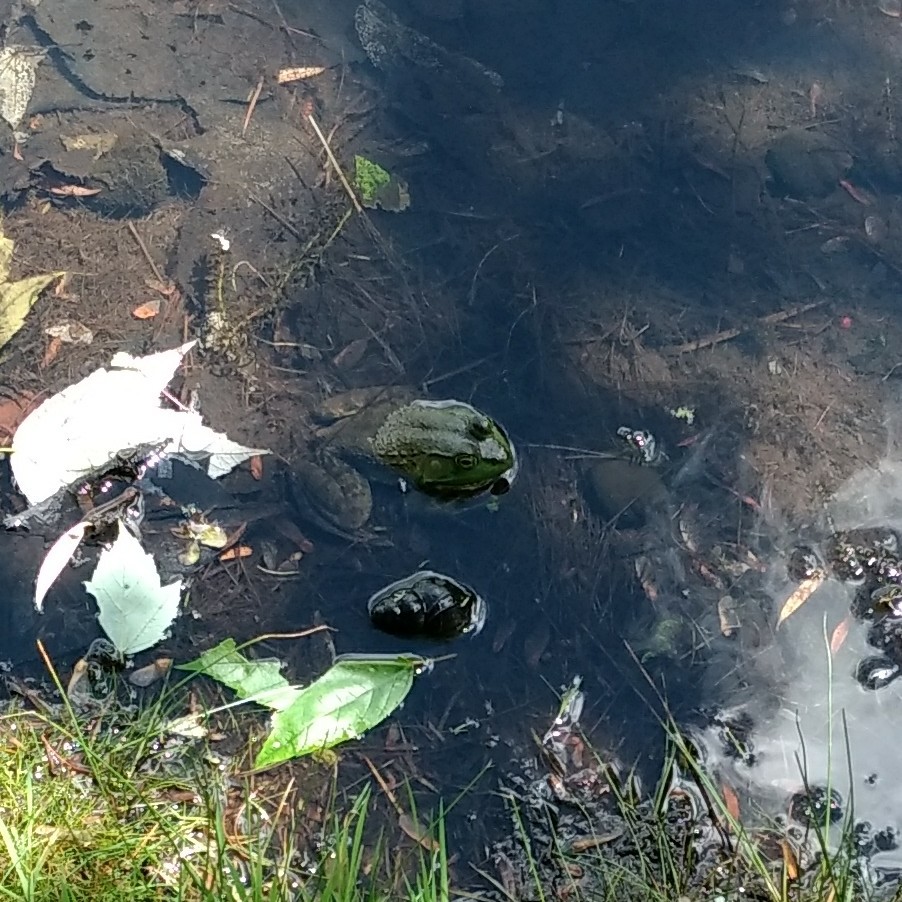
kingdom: Animalia
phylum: Chordata
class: Amphibia
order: Anura
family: Ranidae
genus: Lithobates
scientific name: Lithobates catesbeianus
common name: American bullfrog
